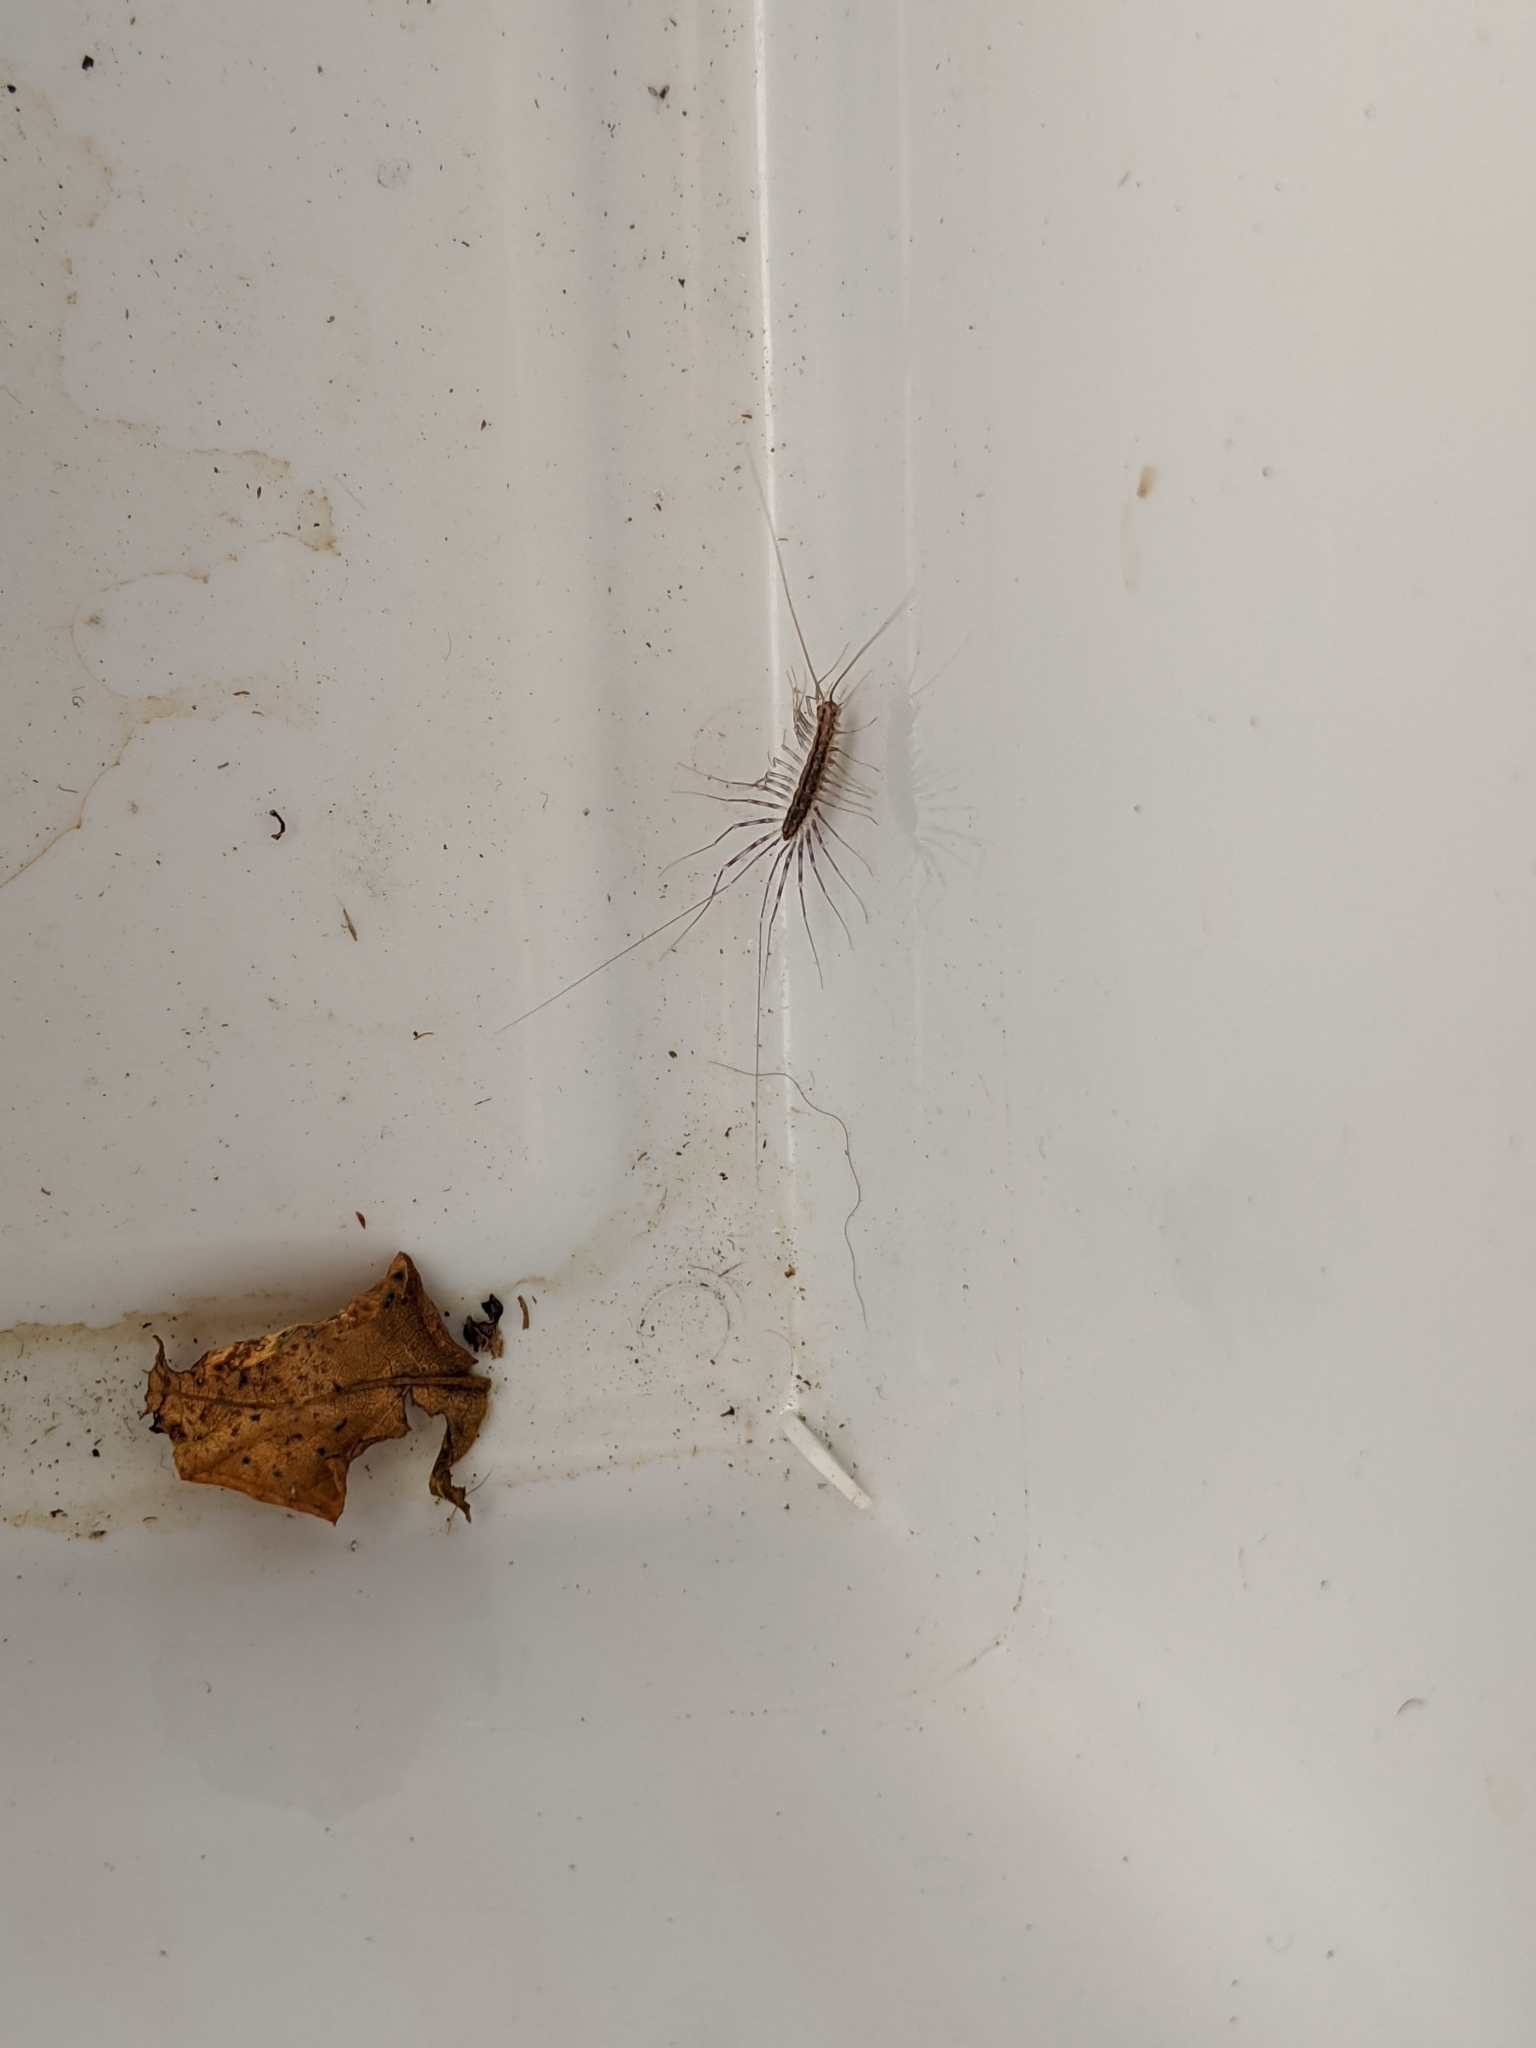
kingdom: Animalia
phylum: Arthropoda
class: Chilopoda
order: Scutigeromorpha
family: Scutigeridae
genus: Scutigera
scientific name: Scutigera coleoptrata
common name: House centipede
